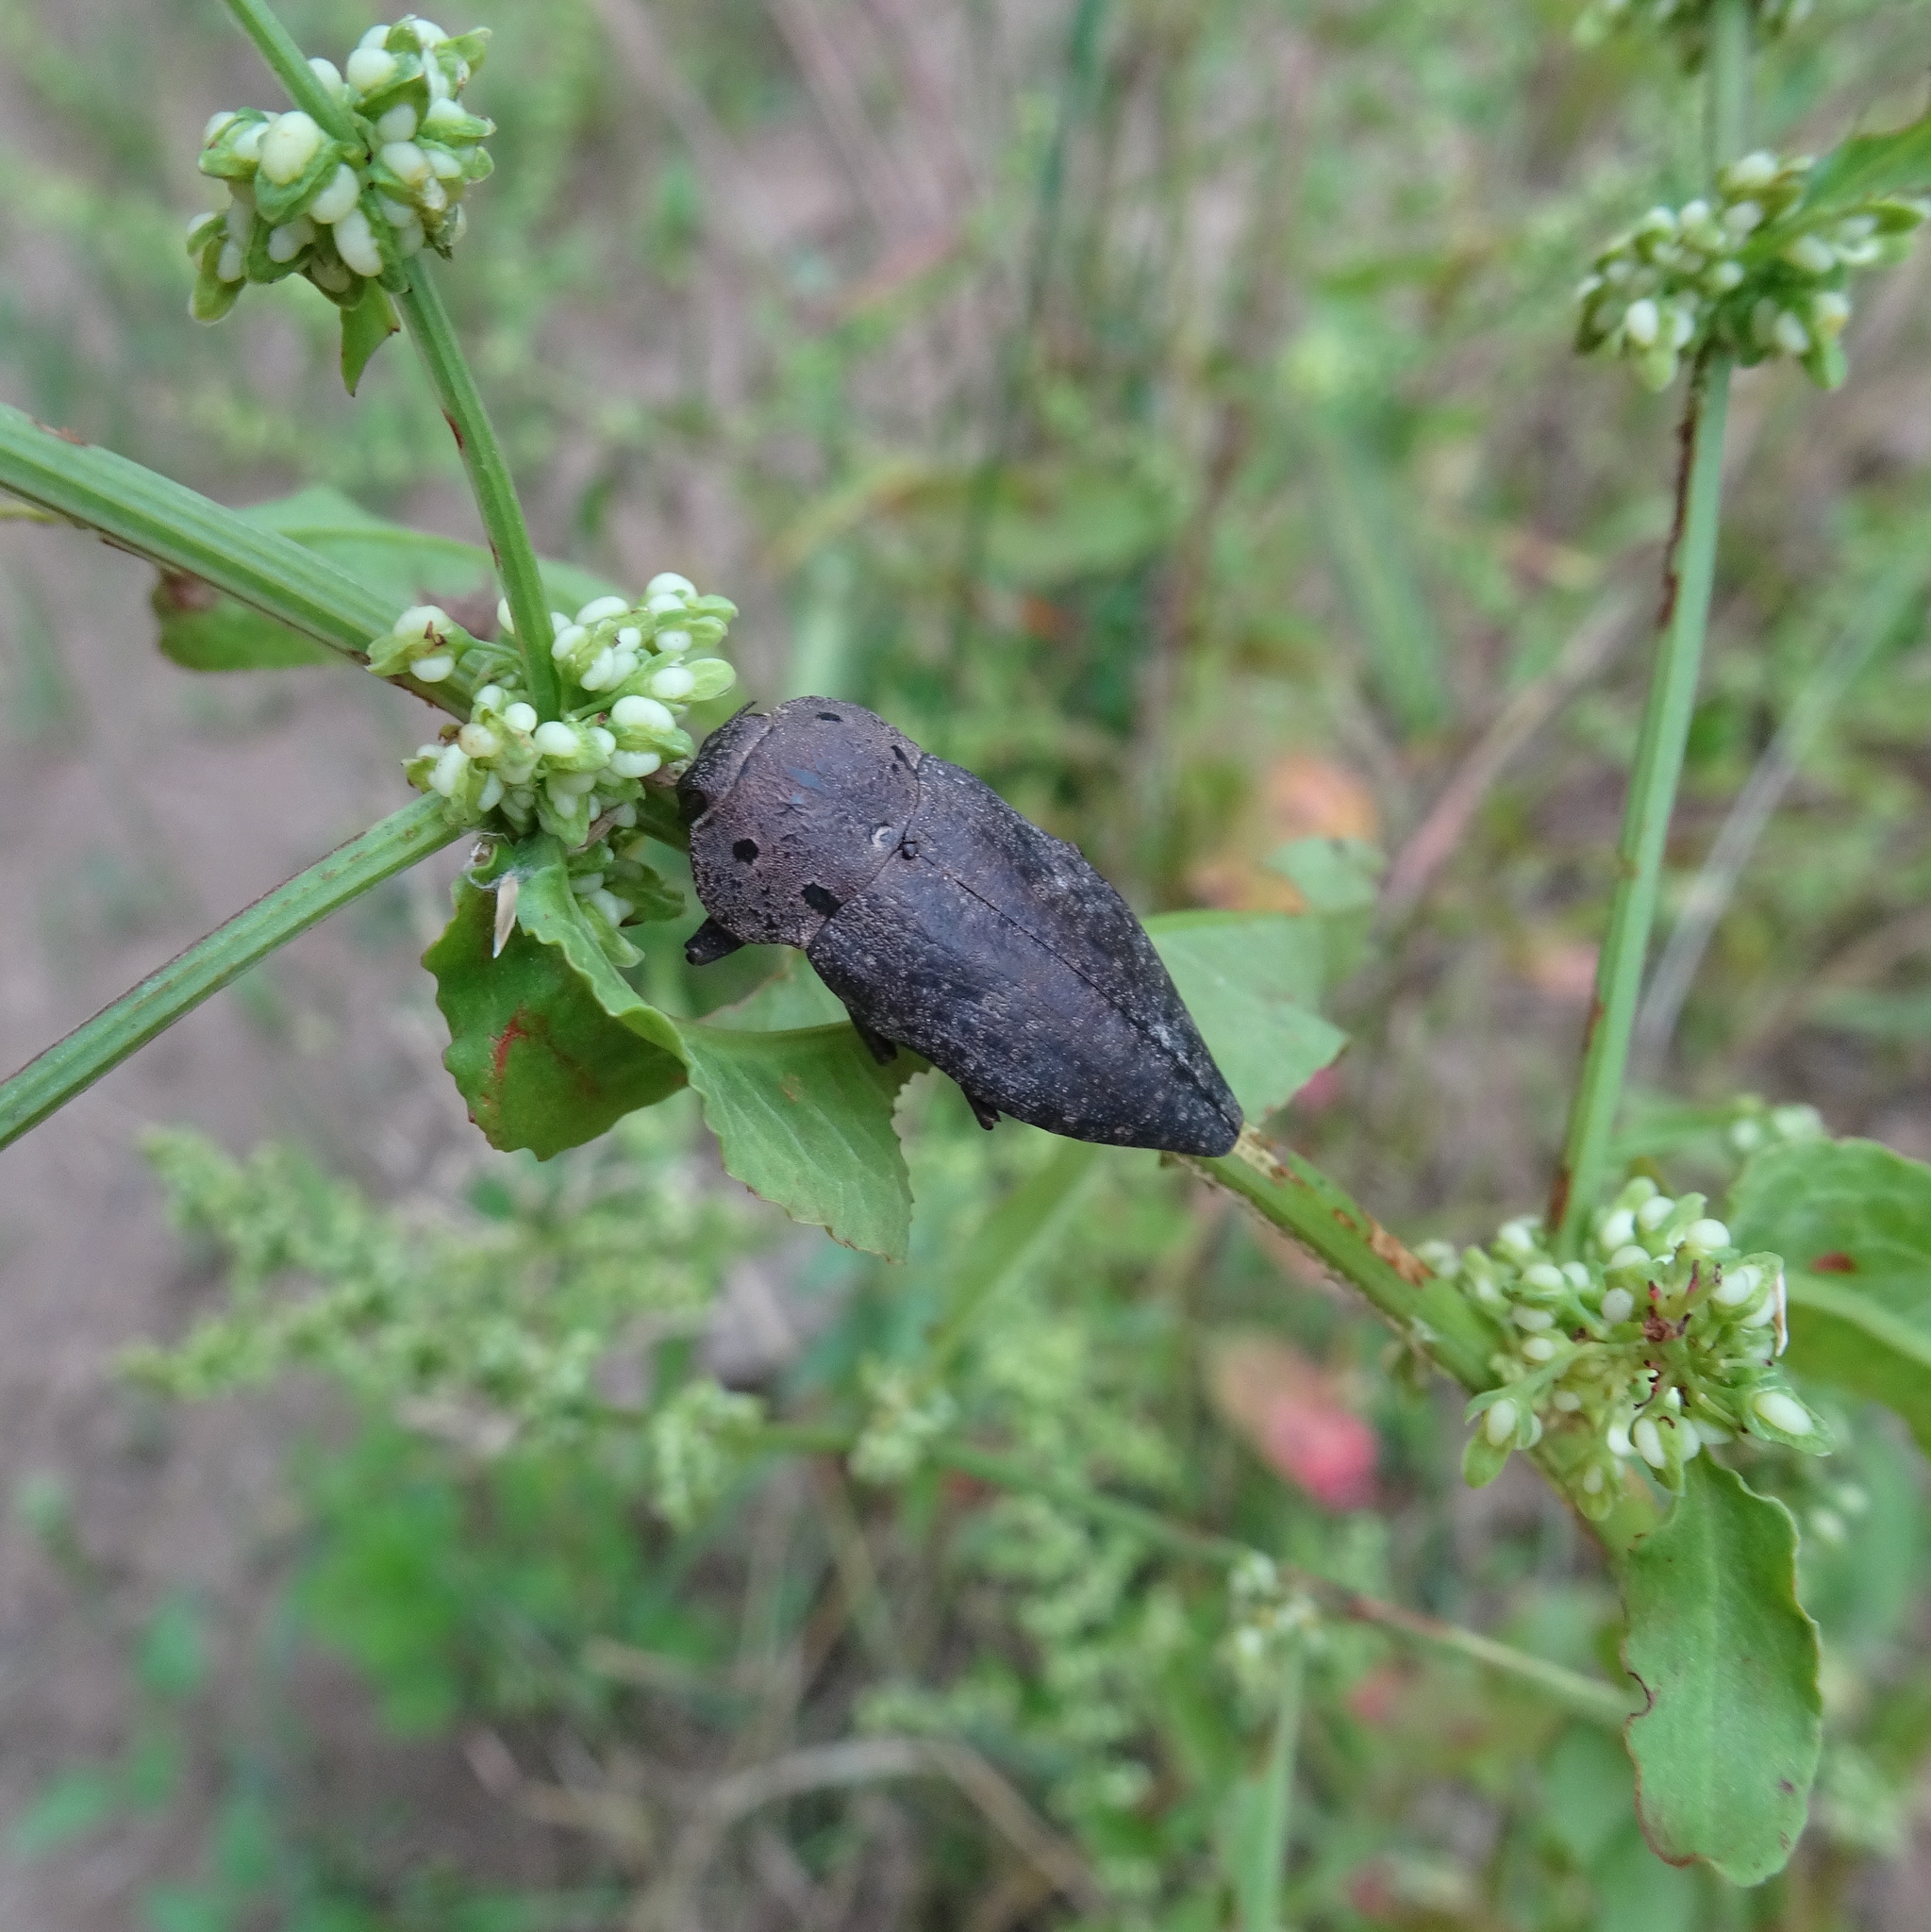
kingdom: Animalia
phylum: Arthropoda
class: Insecta
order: Coleoptera
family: Buprestidae
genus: Capnodis
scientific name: Capnodis tenebricosa
